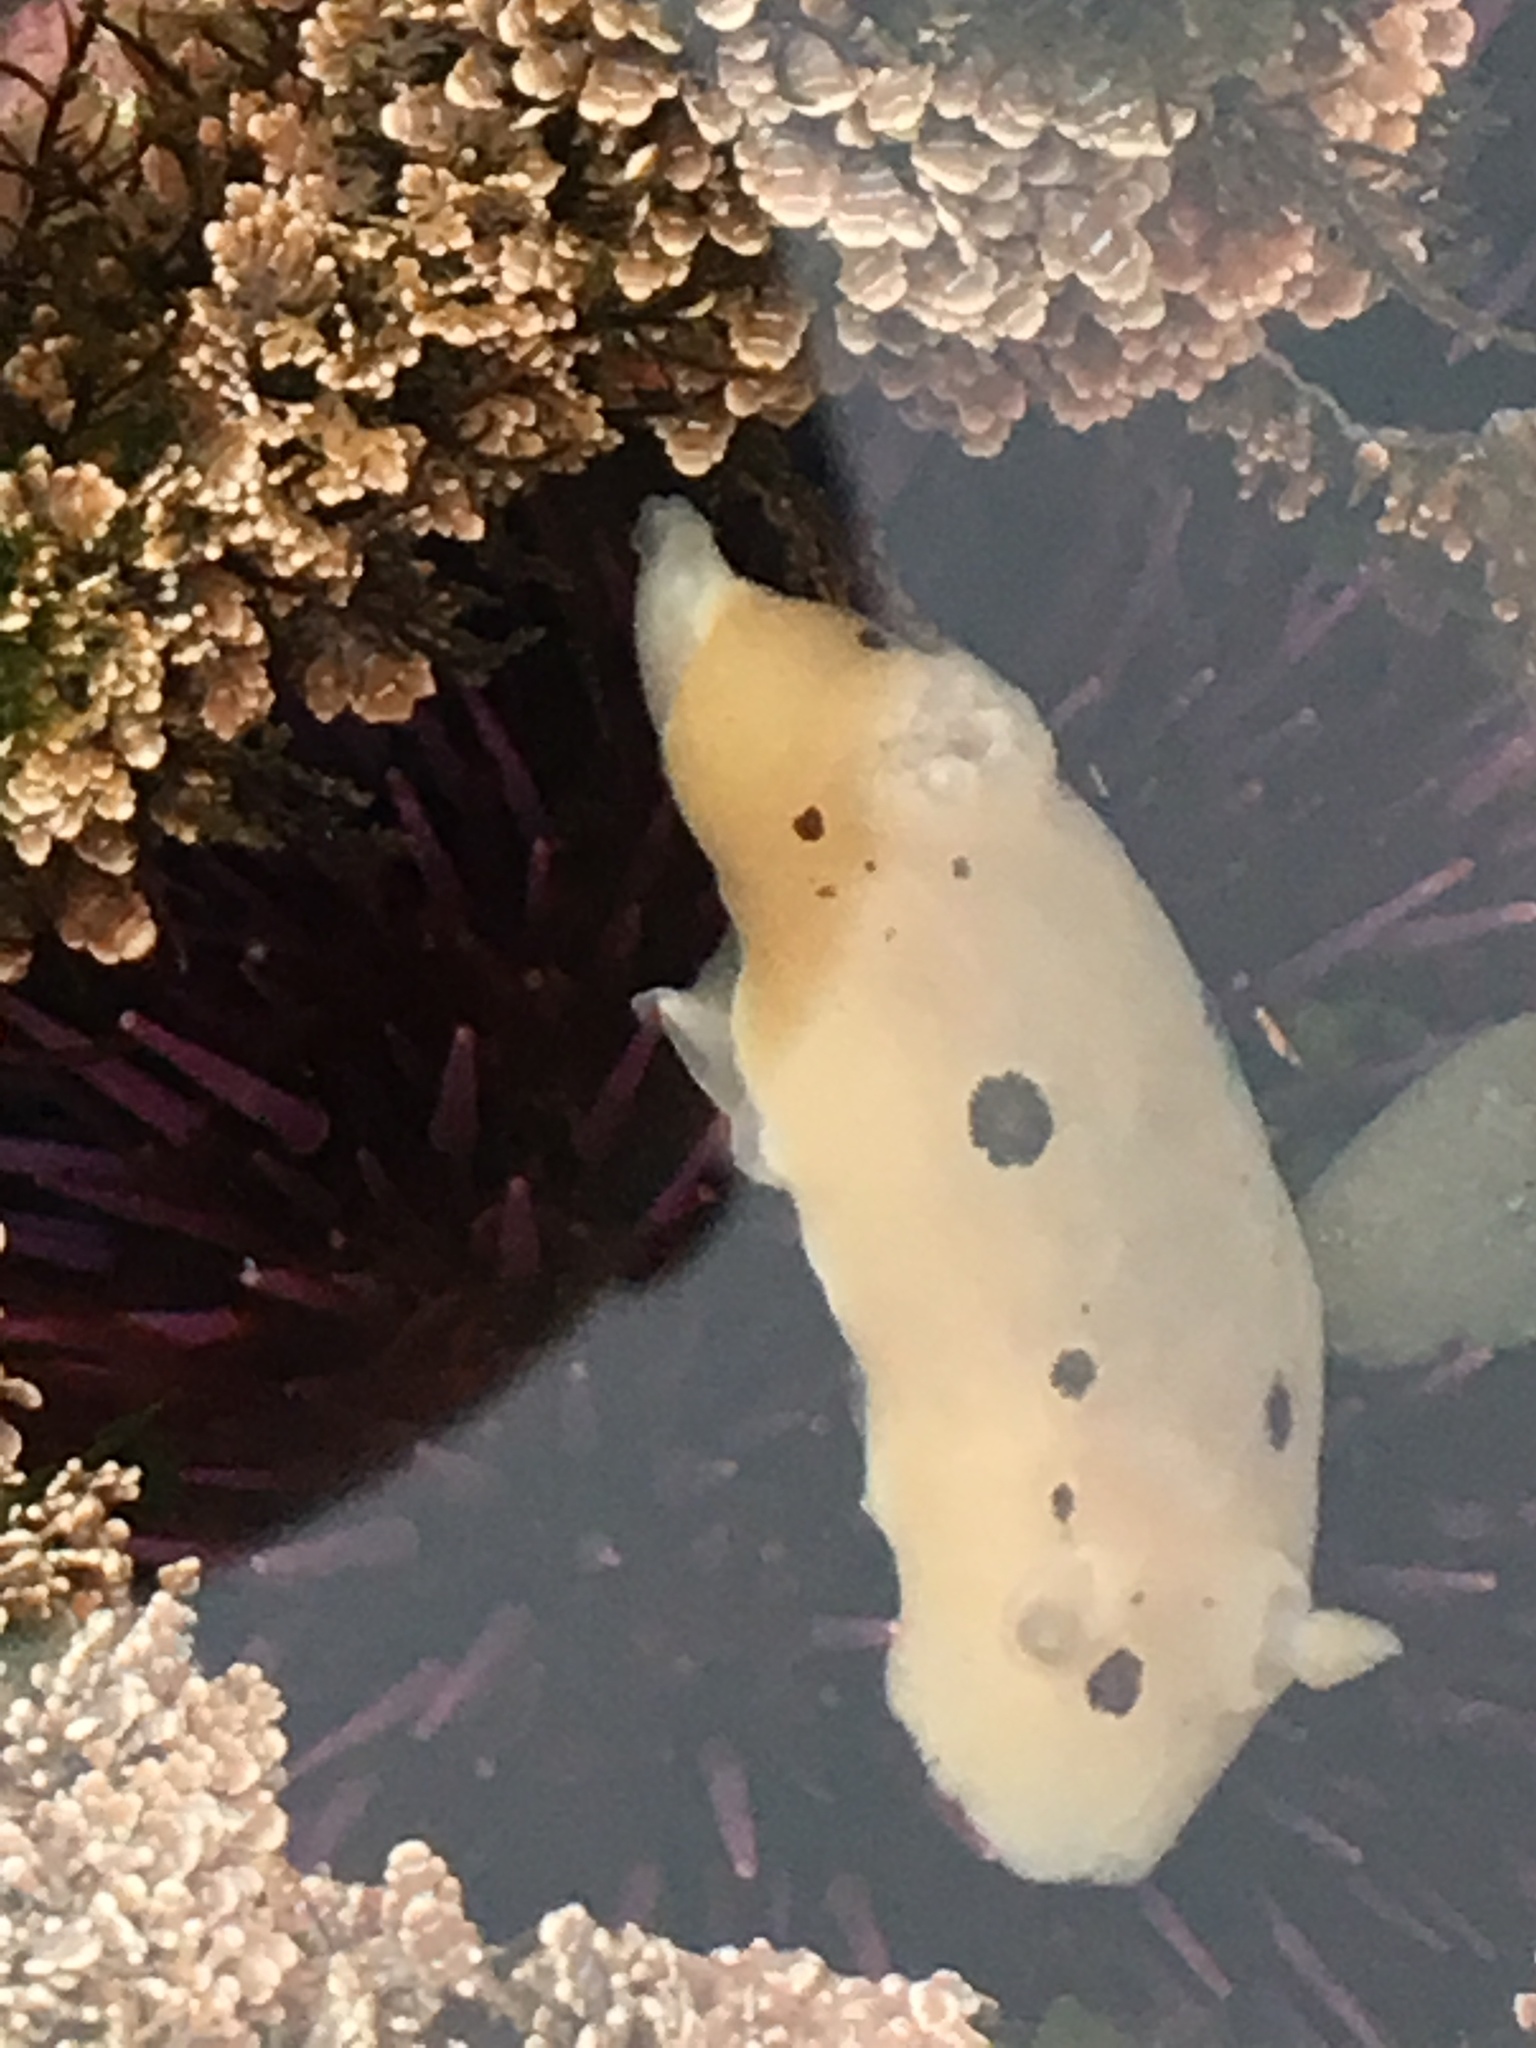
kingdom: Animalia
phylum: Mollusca
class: Gastropoda
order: Nudibranchia
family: Discodorididae
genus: Diaulula
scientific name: Diaulula sandiegensis
